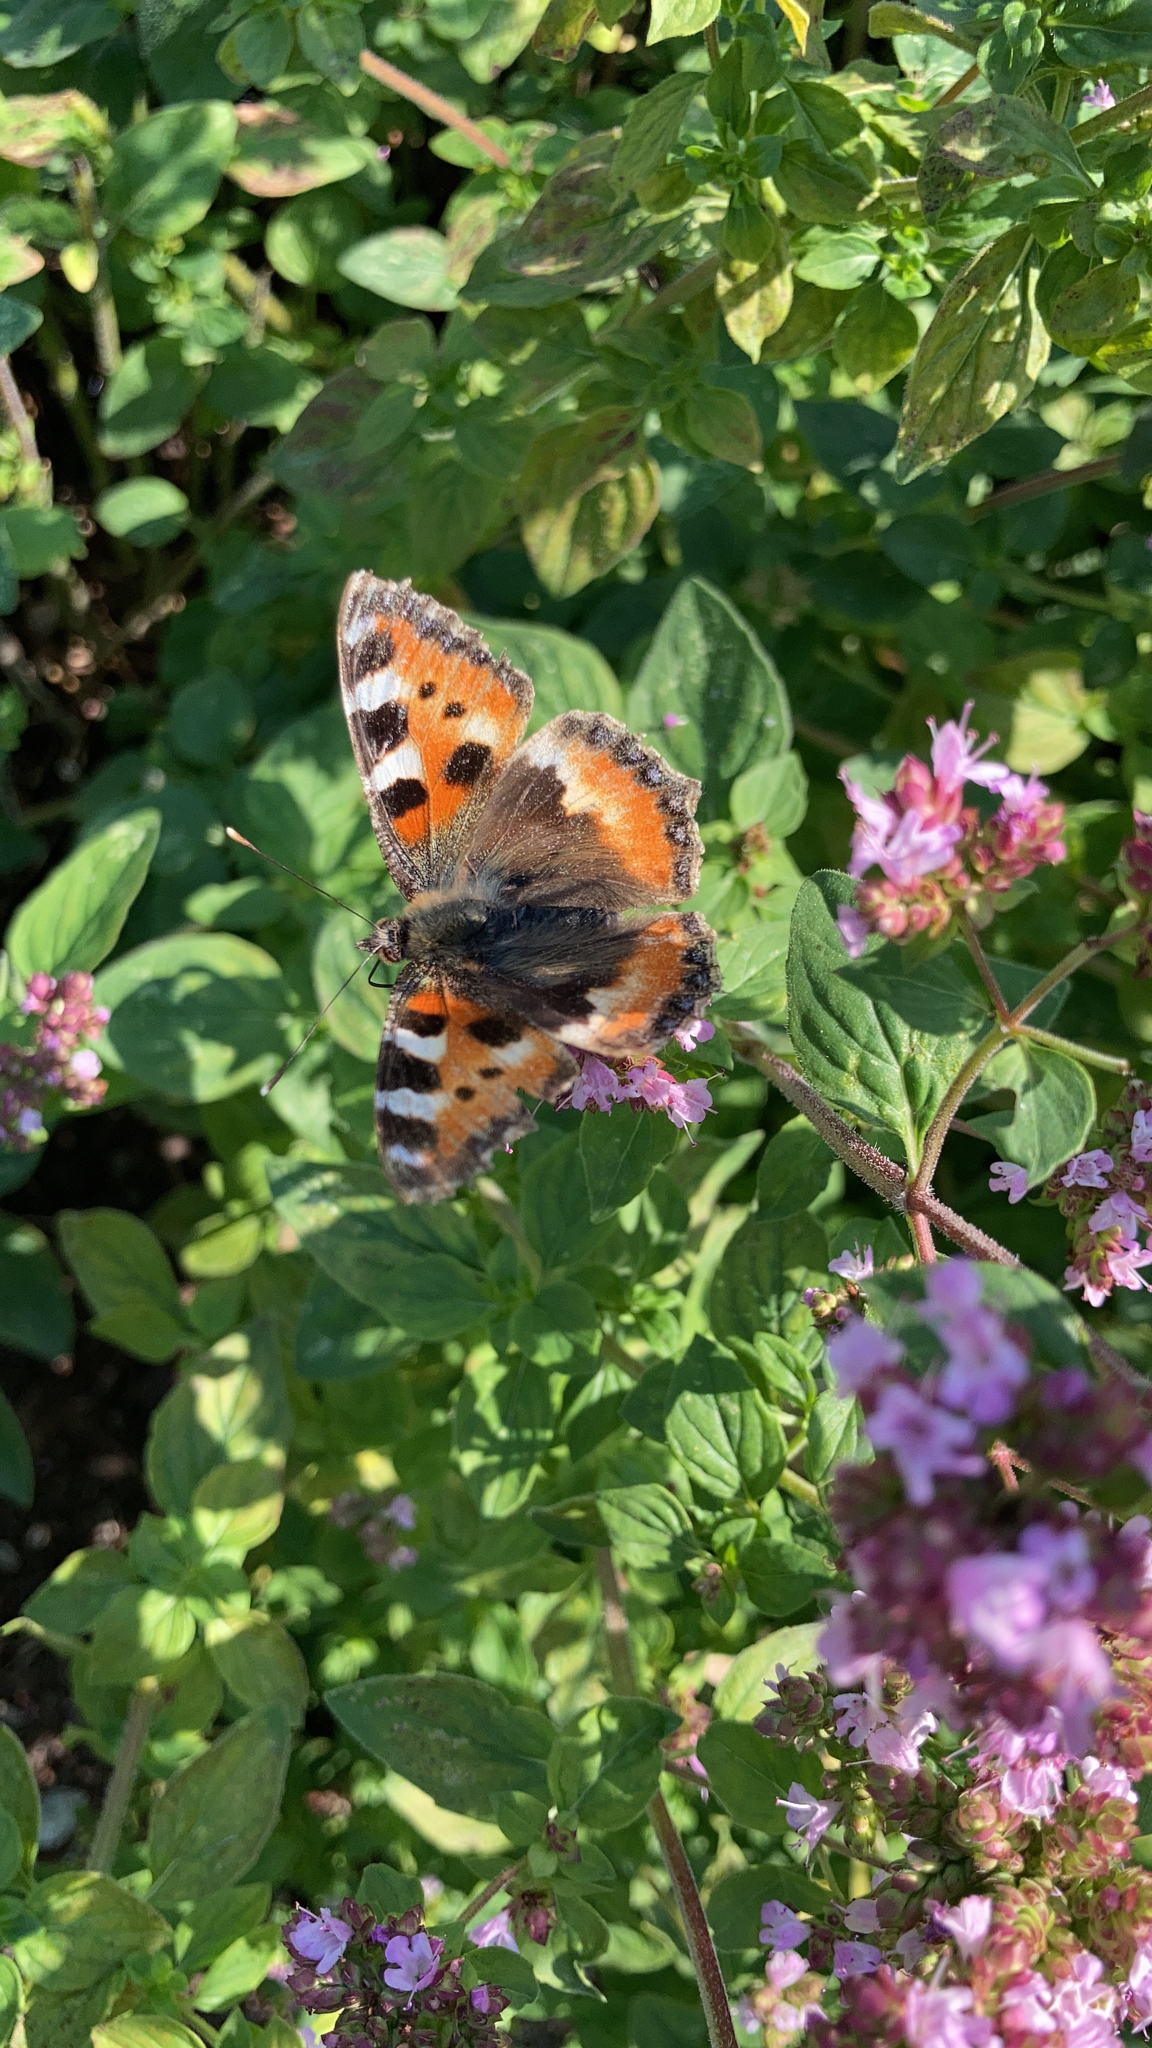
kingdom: Animalia
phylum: Arthropoda
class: Insecta
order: Lepidoptera
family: Nymphalidae
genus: Aglais
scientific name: Aglais urticae
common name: Small tortoiseshell
